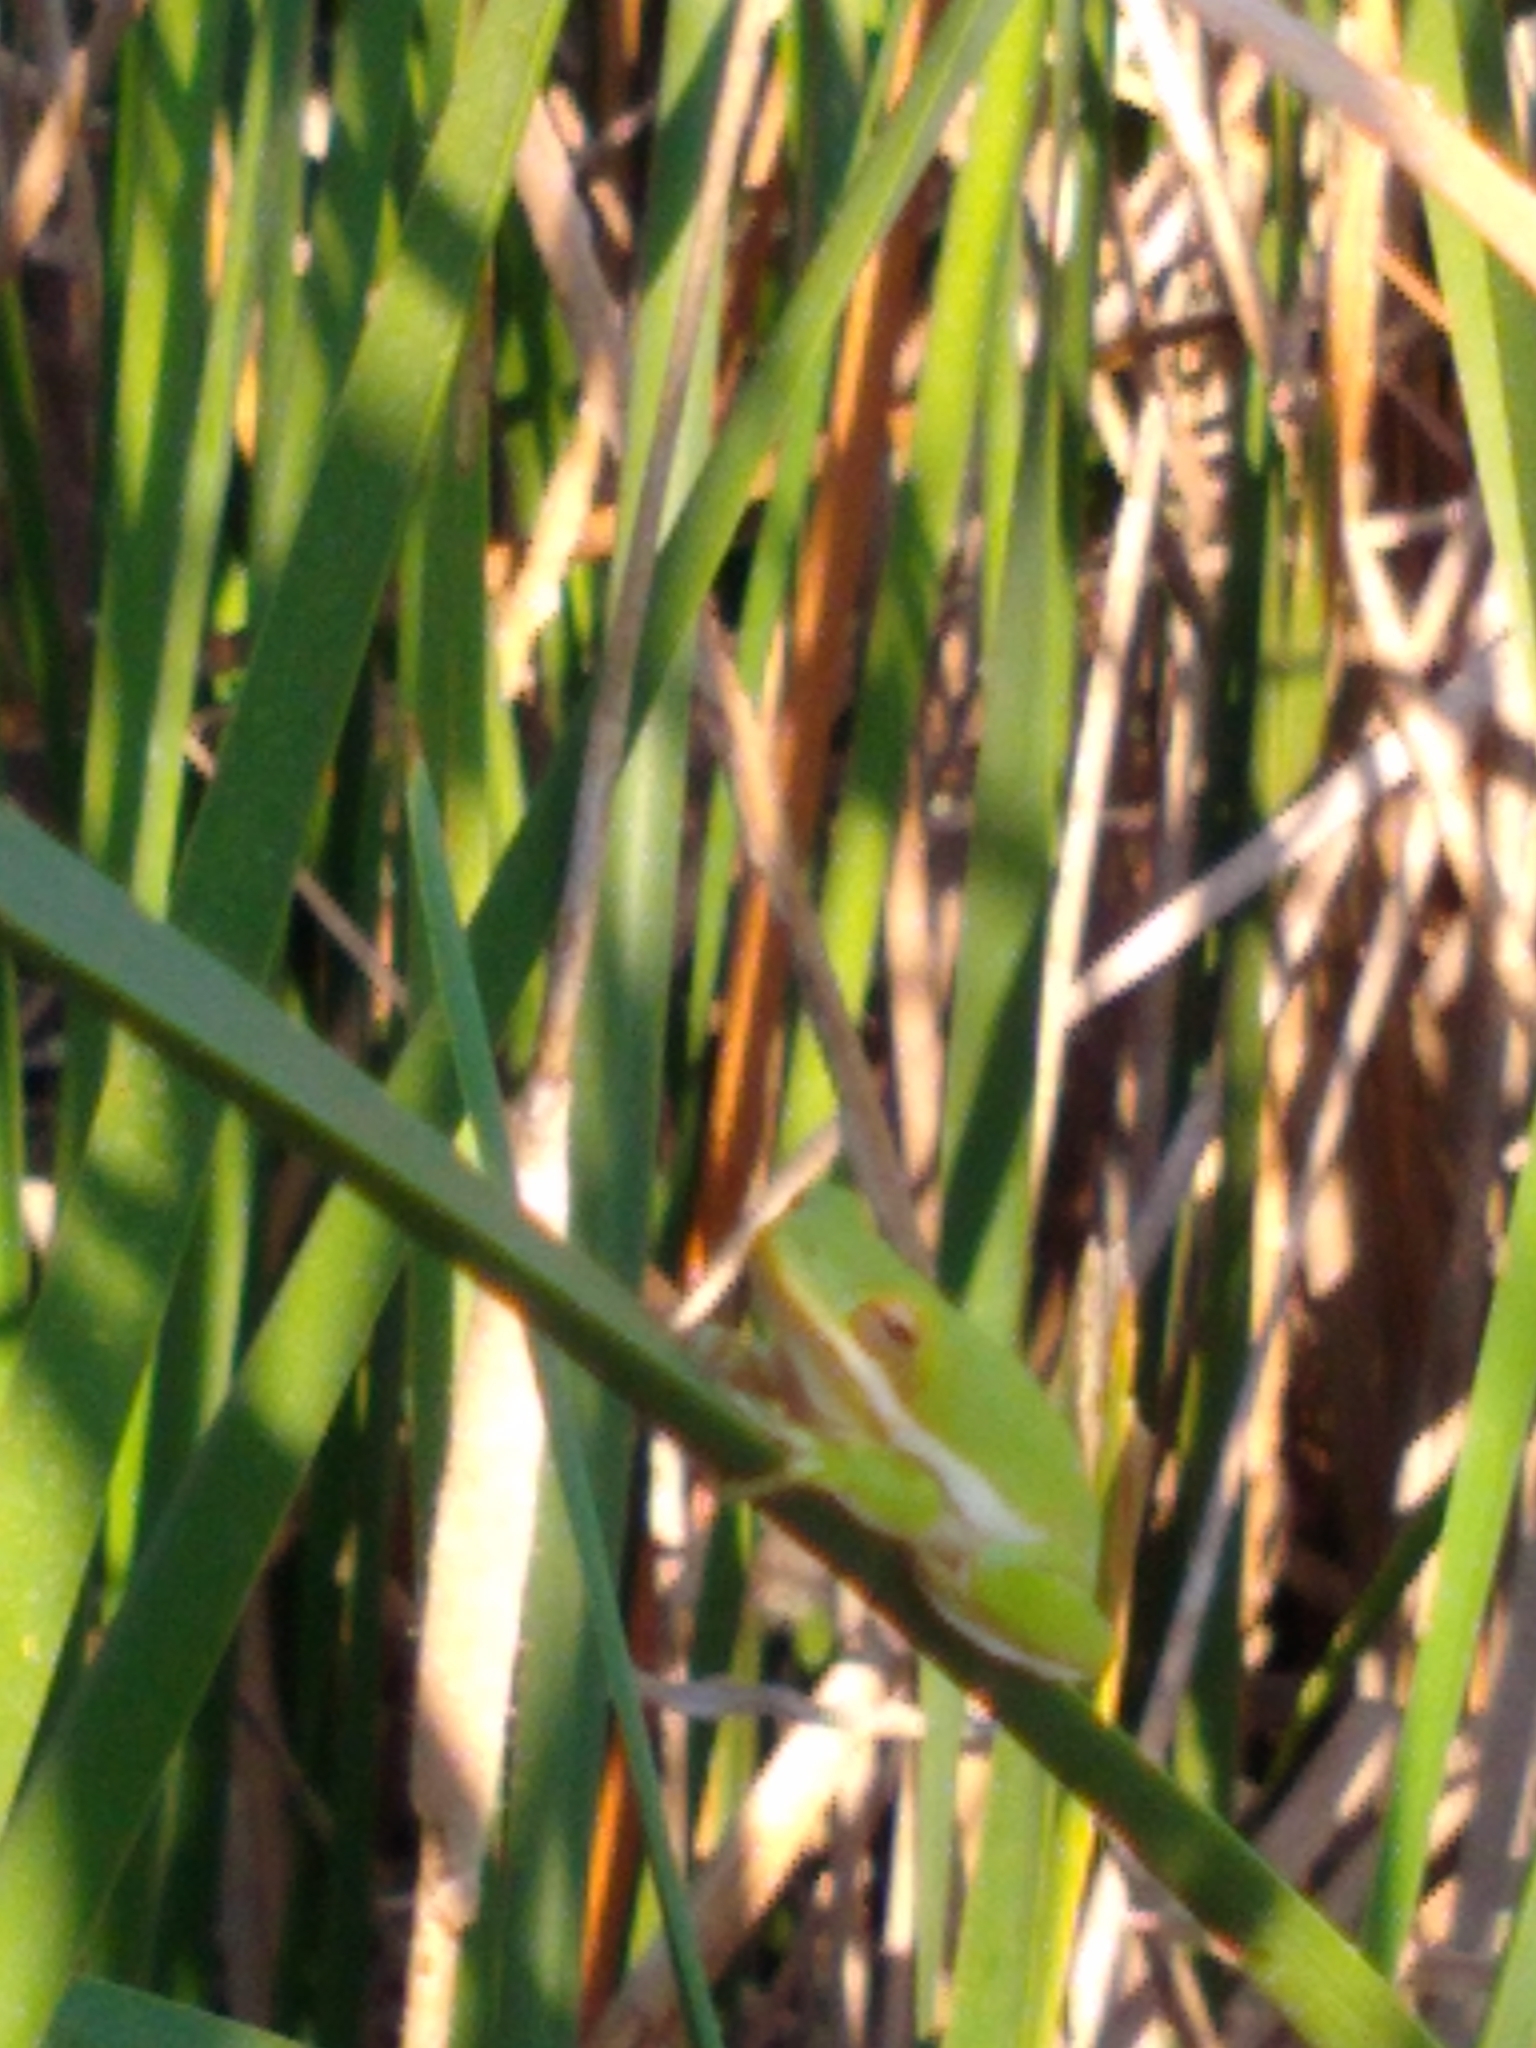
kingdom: Animalia
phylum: Chordata
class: Amphibia
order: Anura
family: Hylidae
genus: Dryophytes
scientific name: Dryophytes cinereus
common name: Green treefrog
